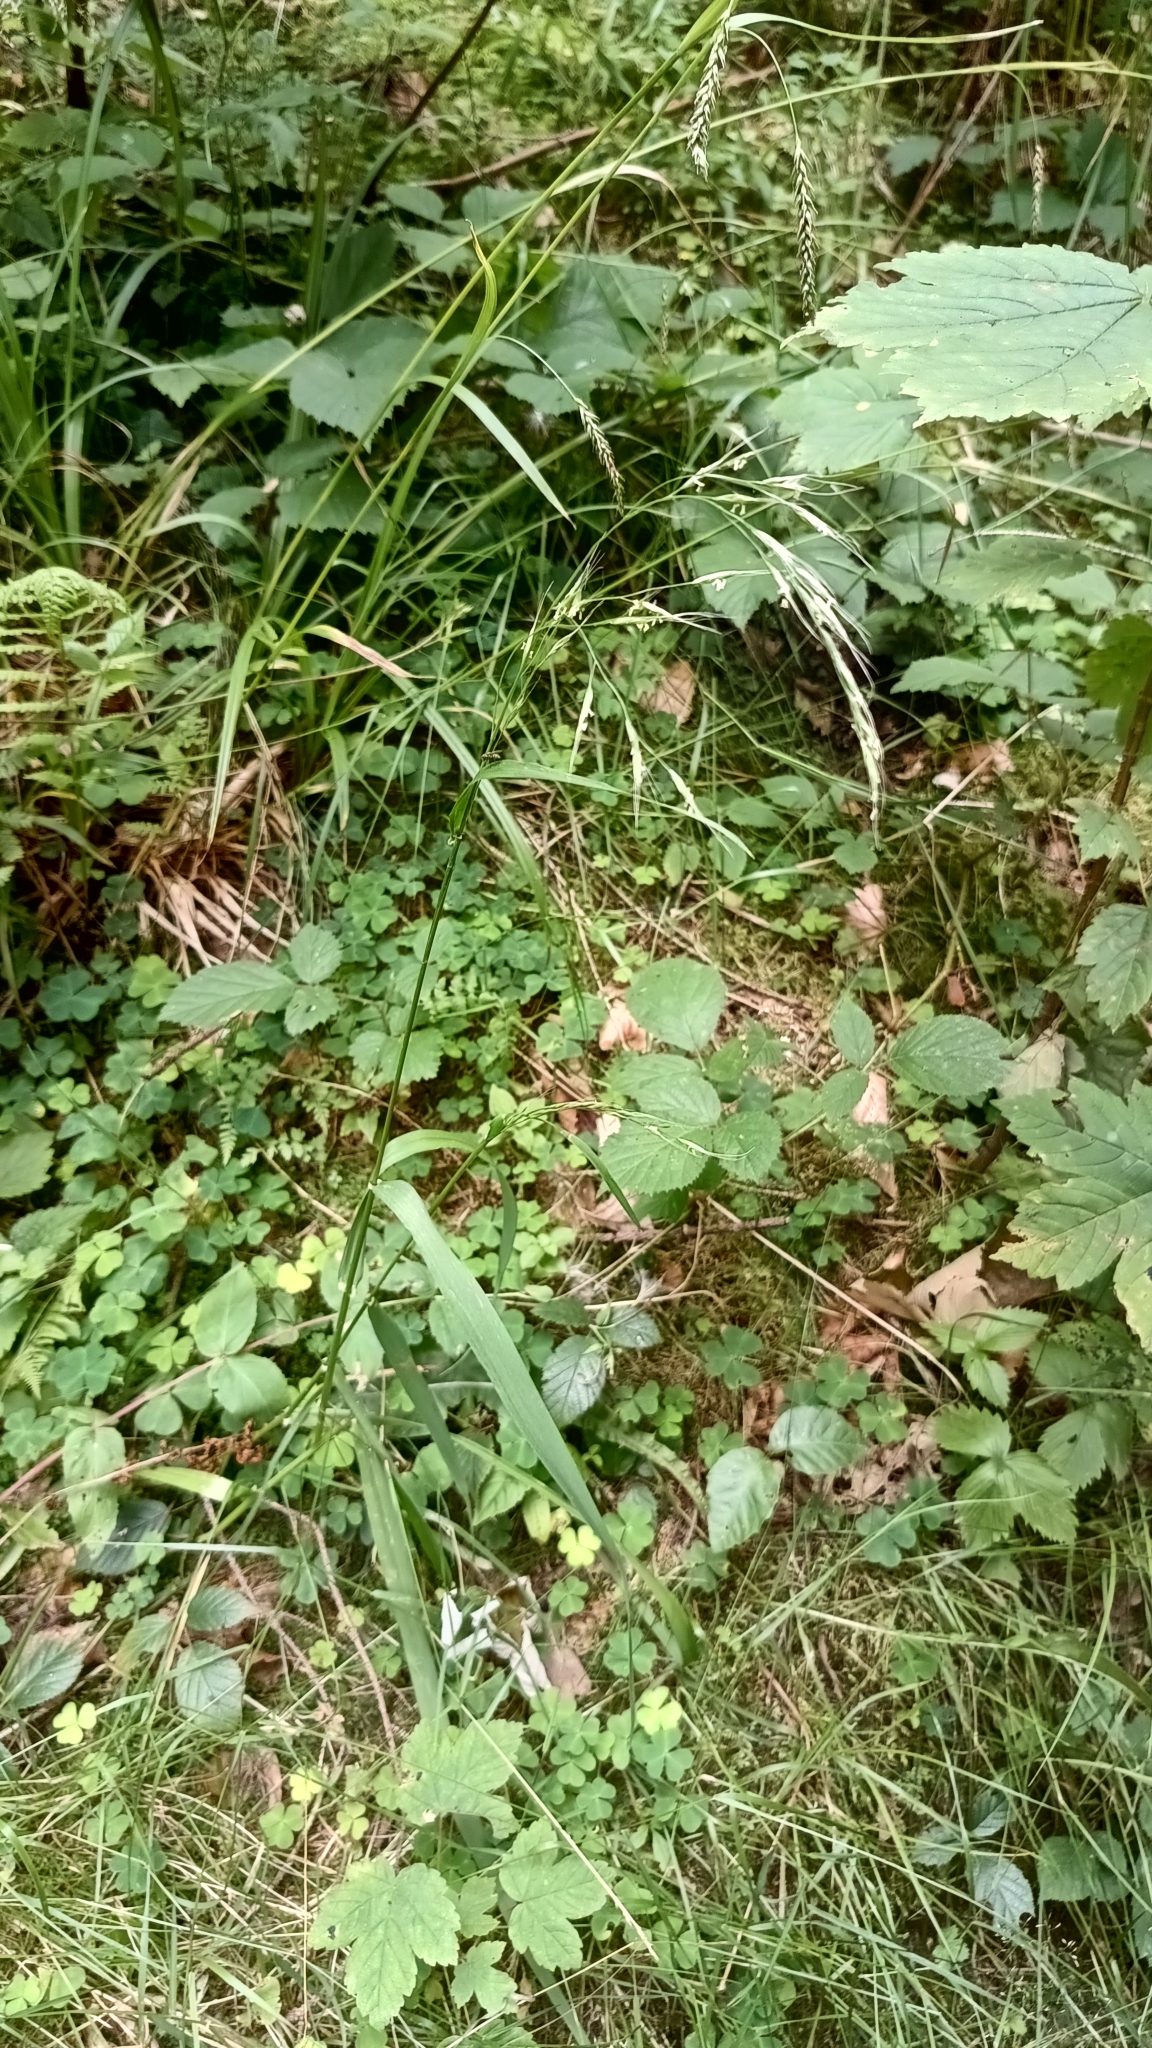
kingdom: Plantae
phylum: Tracheophyta
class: Liliopsida
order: Poales
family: Poaceae
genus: Lolium
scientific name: Lolium giganteum
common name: Giant fescue
